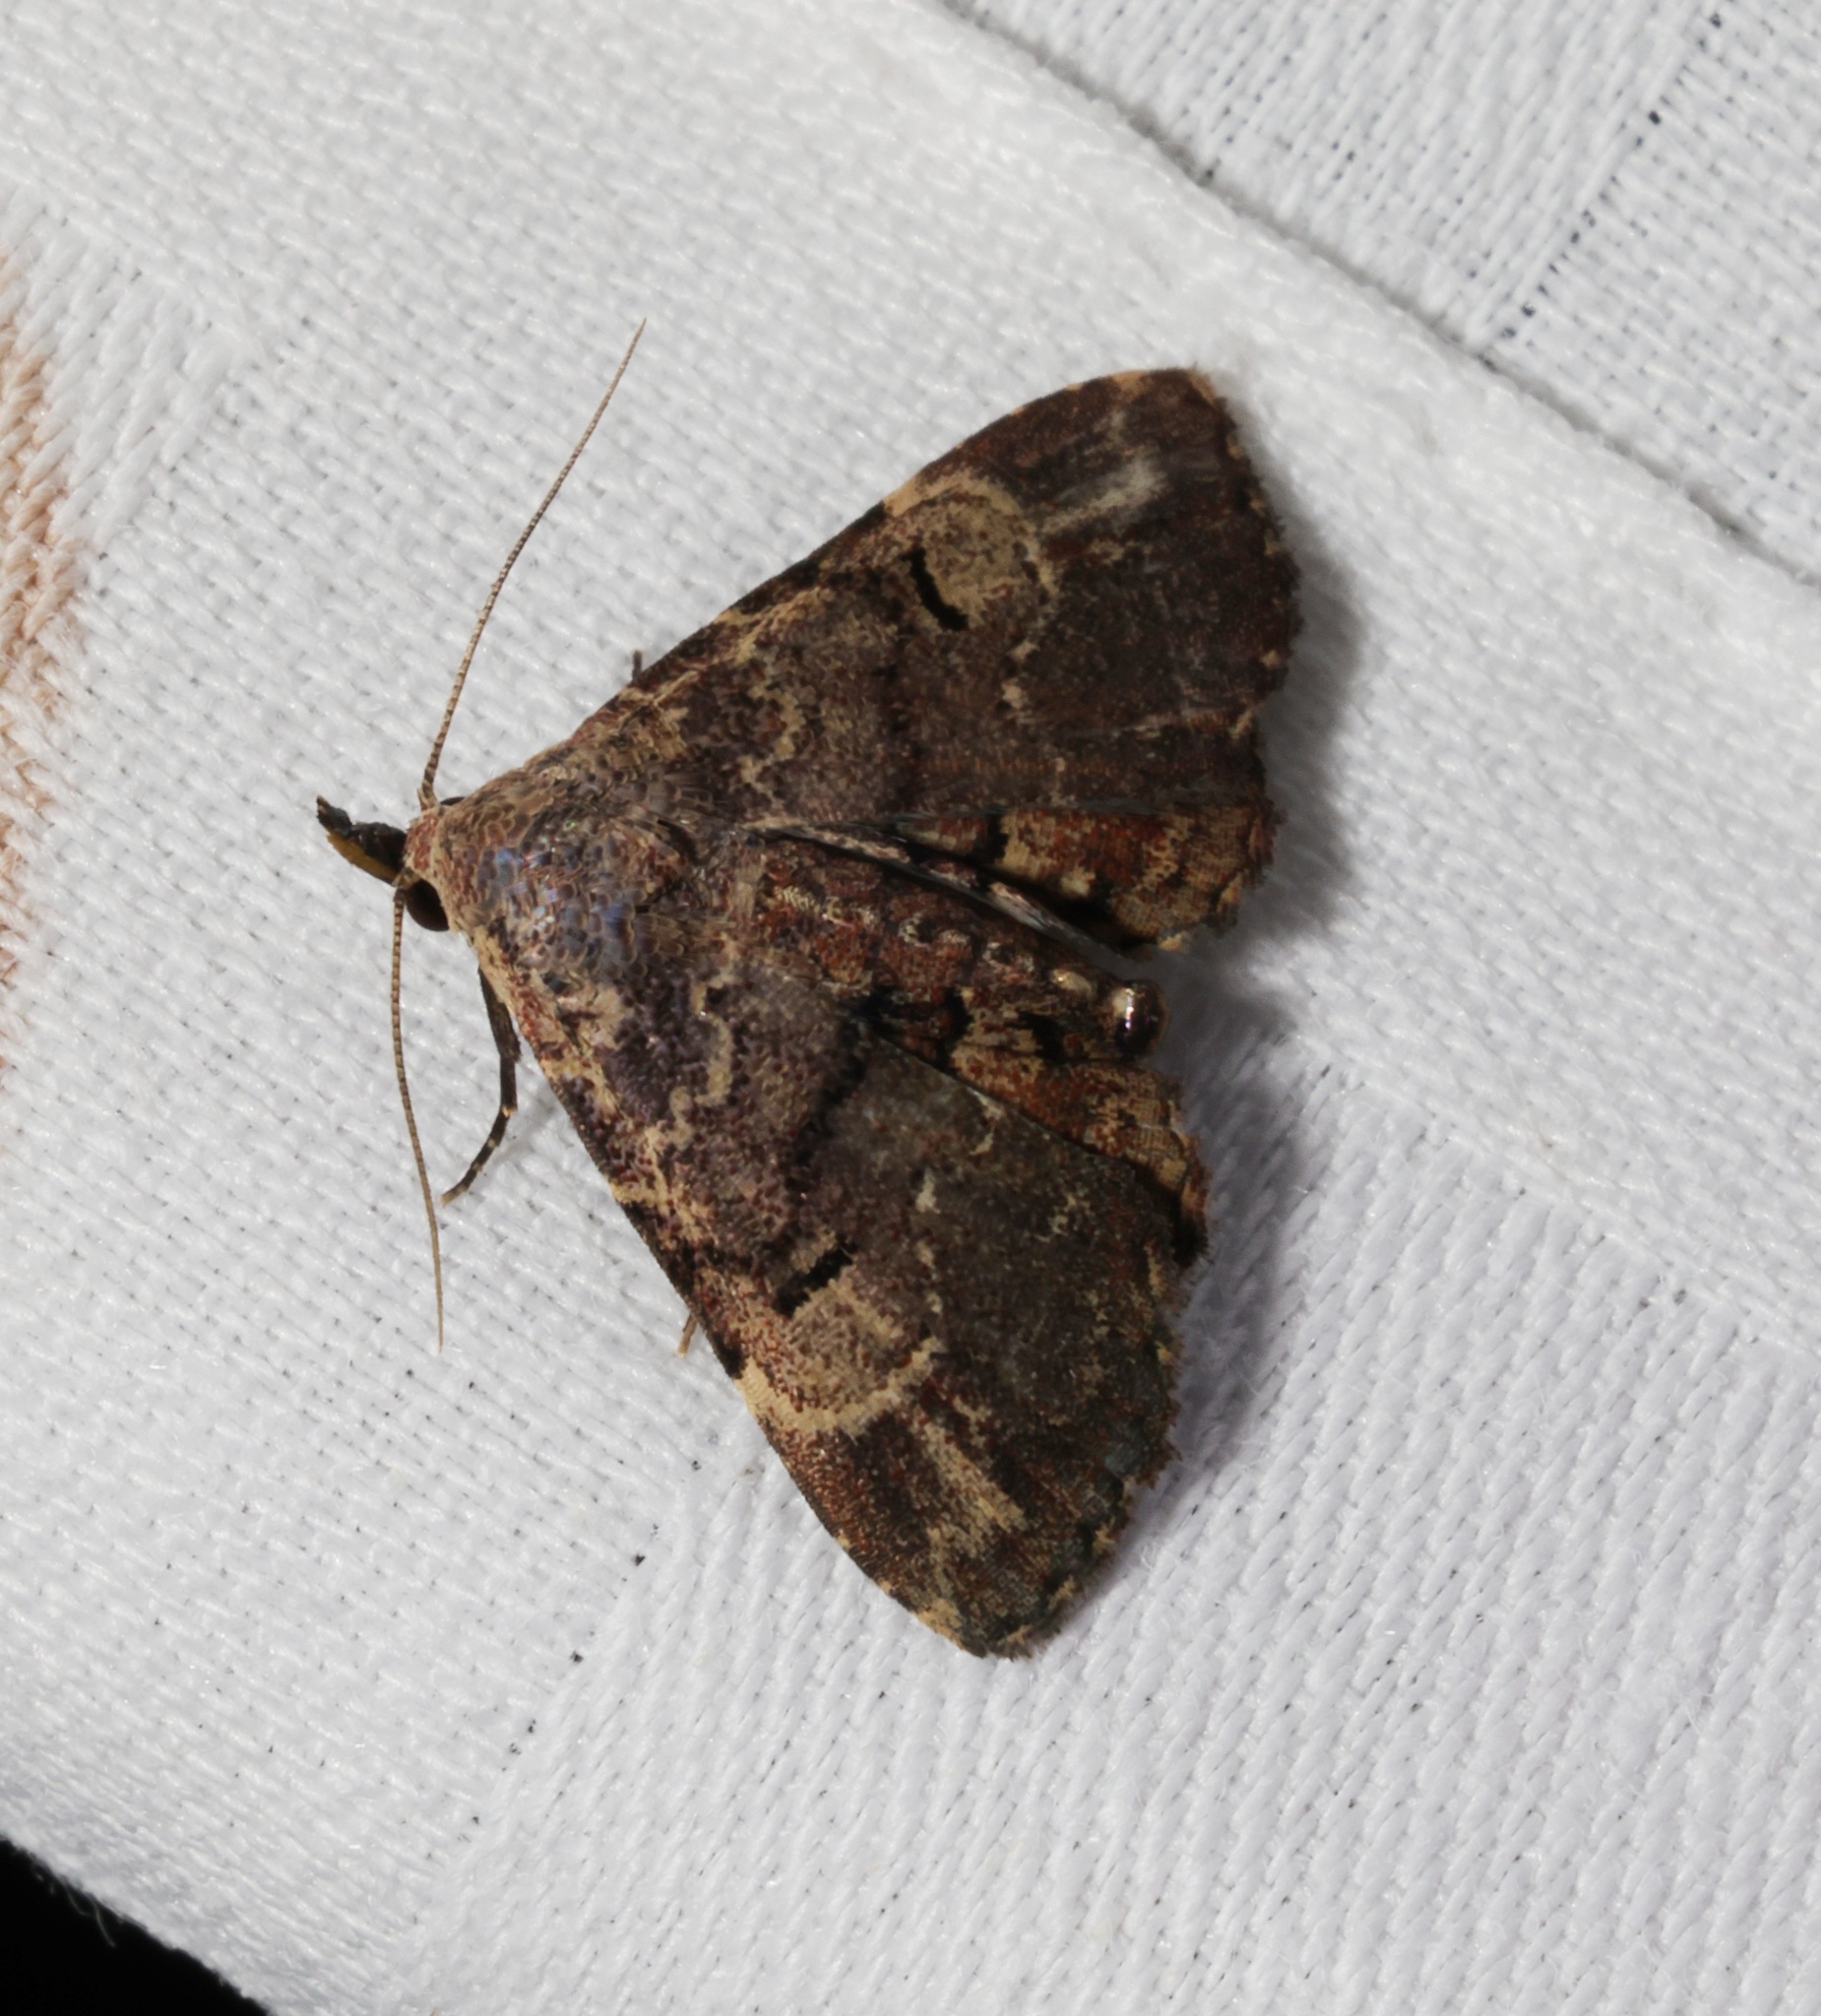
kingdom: Animalia
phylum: Arthropoda
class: Insecta
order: Lepidoptera
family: Erebidae
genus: Maguda
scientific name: Maguda suffusa
